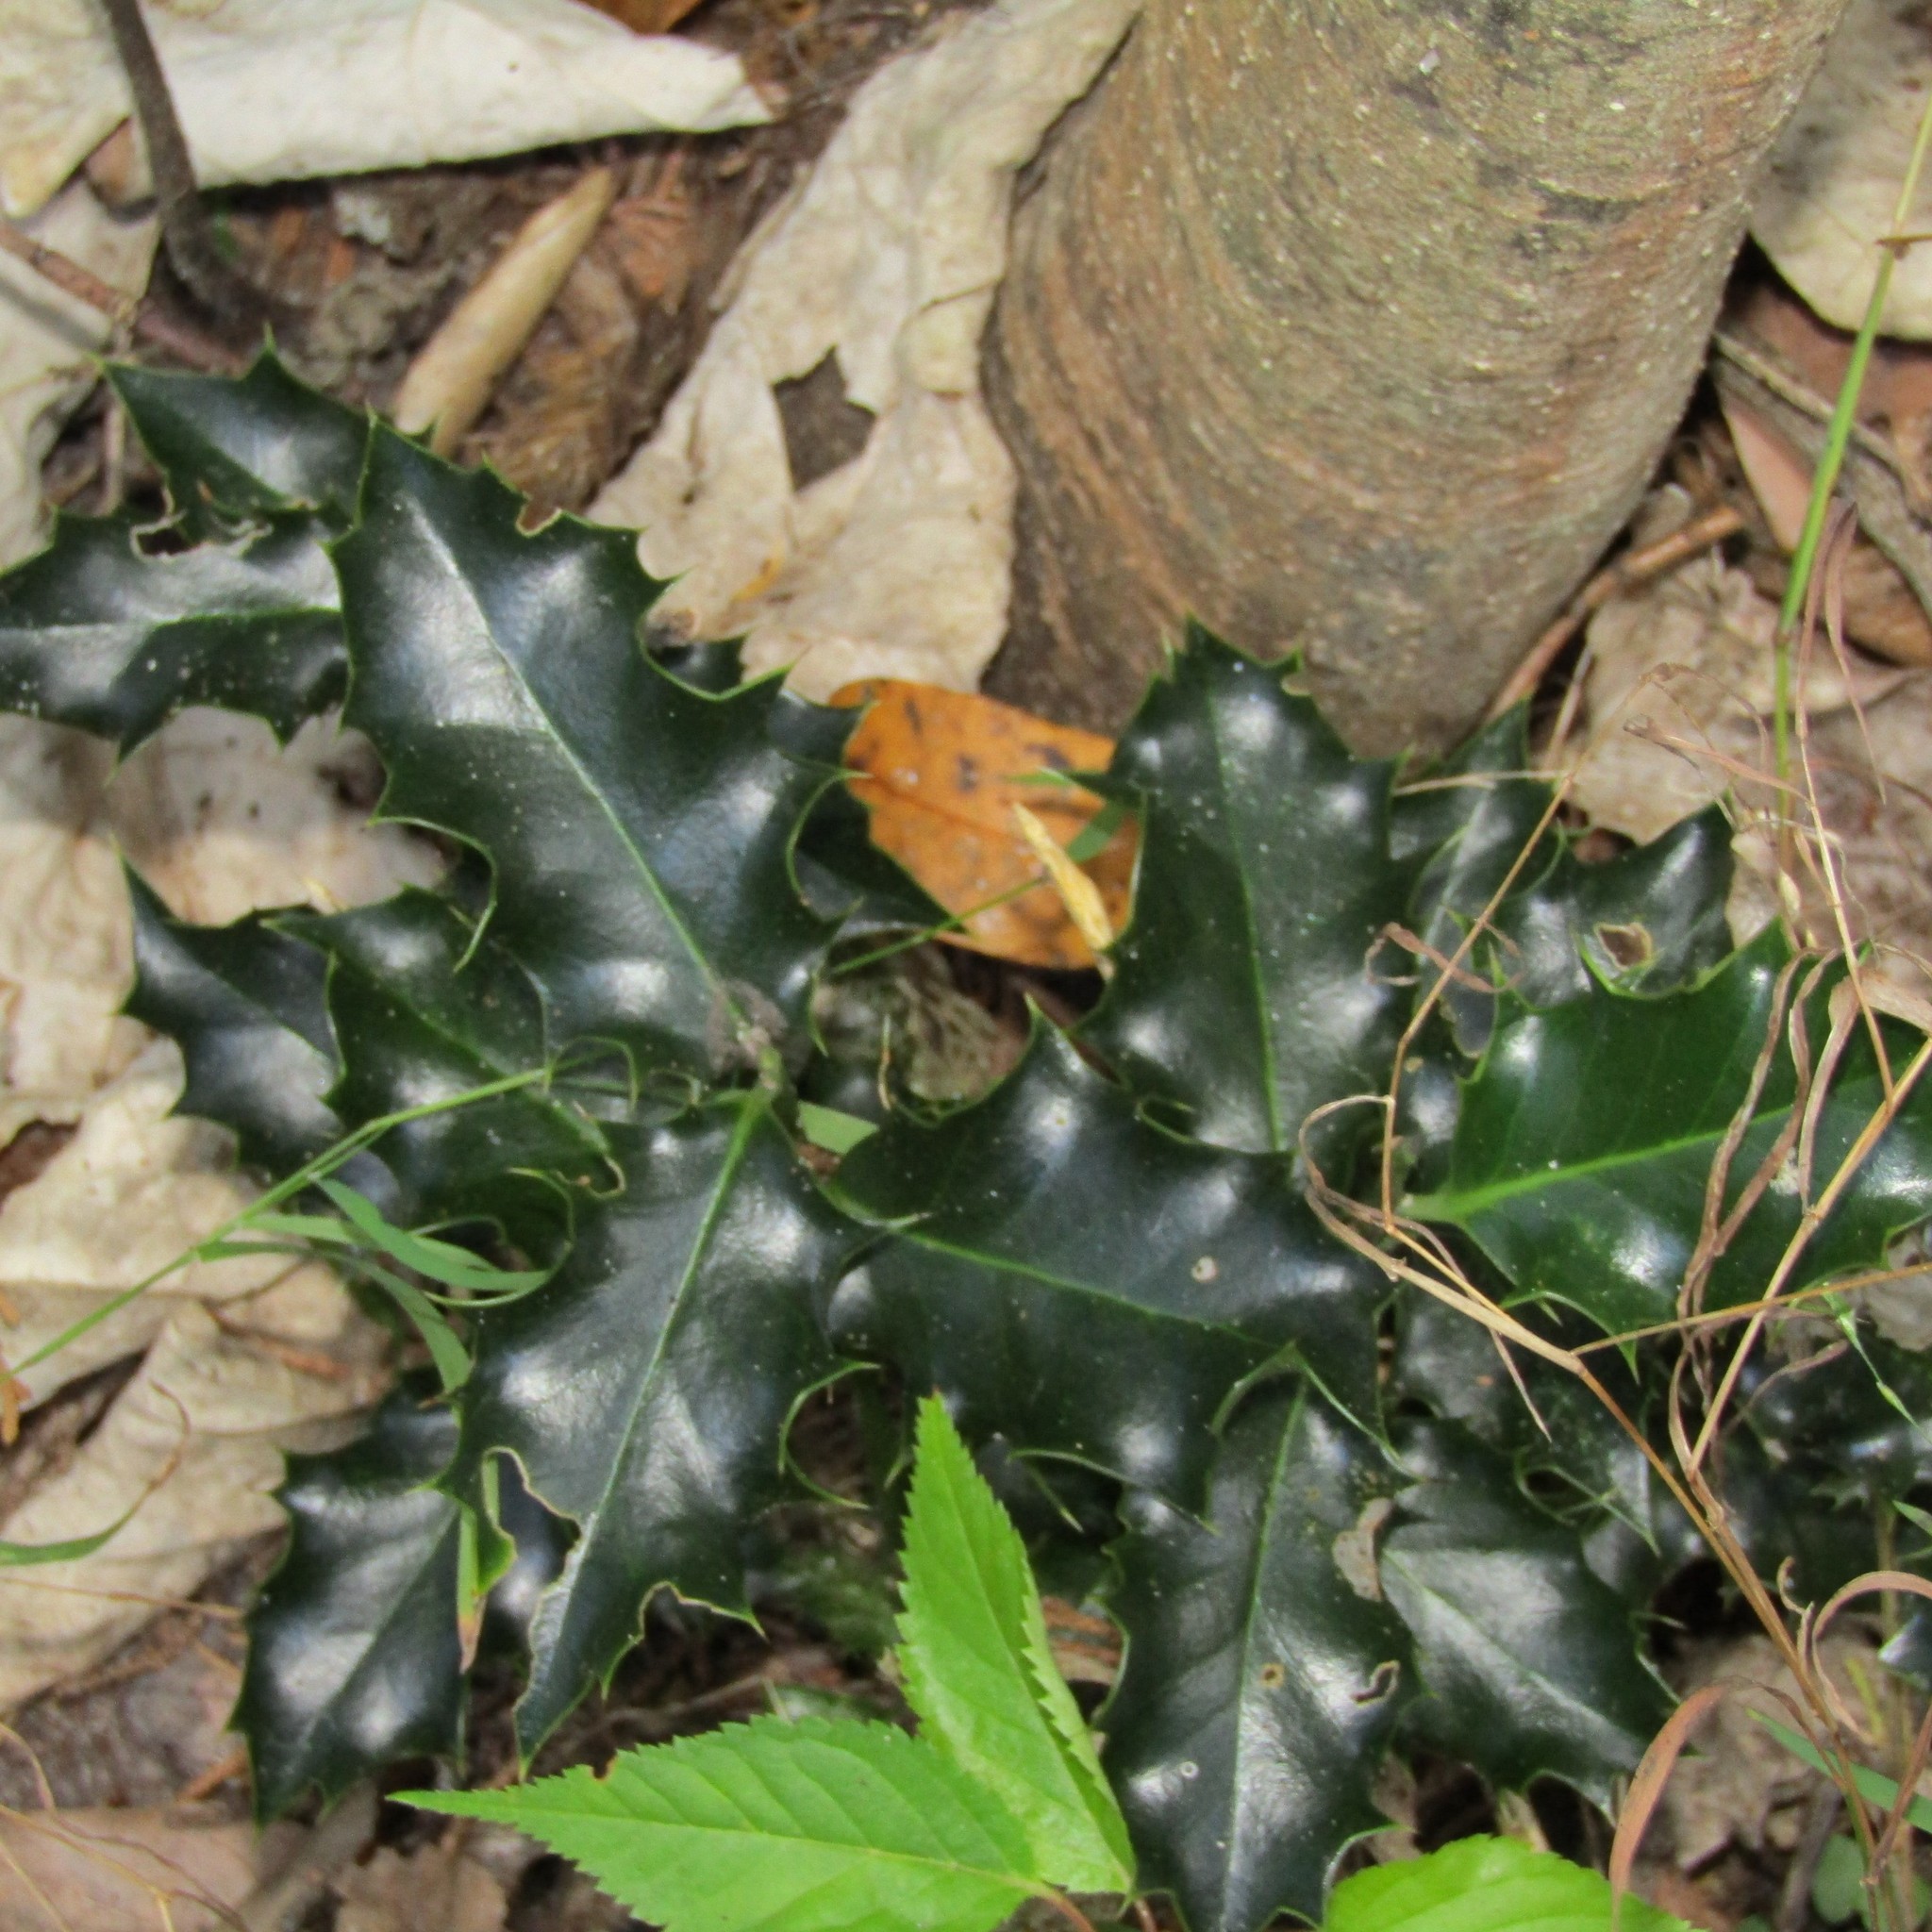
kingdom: Plantae
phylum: Tracheophyta
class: Magnoliopsida
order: Aquifoliales
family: Aquifoliaceae
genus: Ilex
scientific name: Ilex aquifolium
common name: English holly
